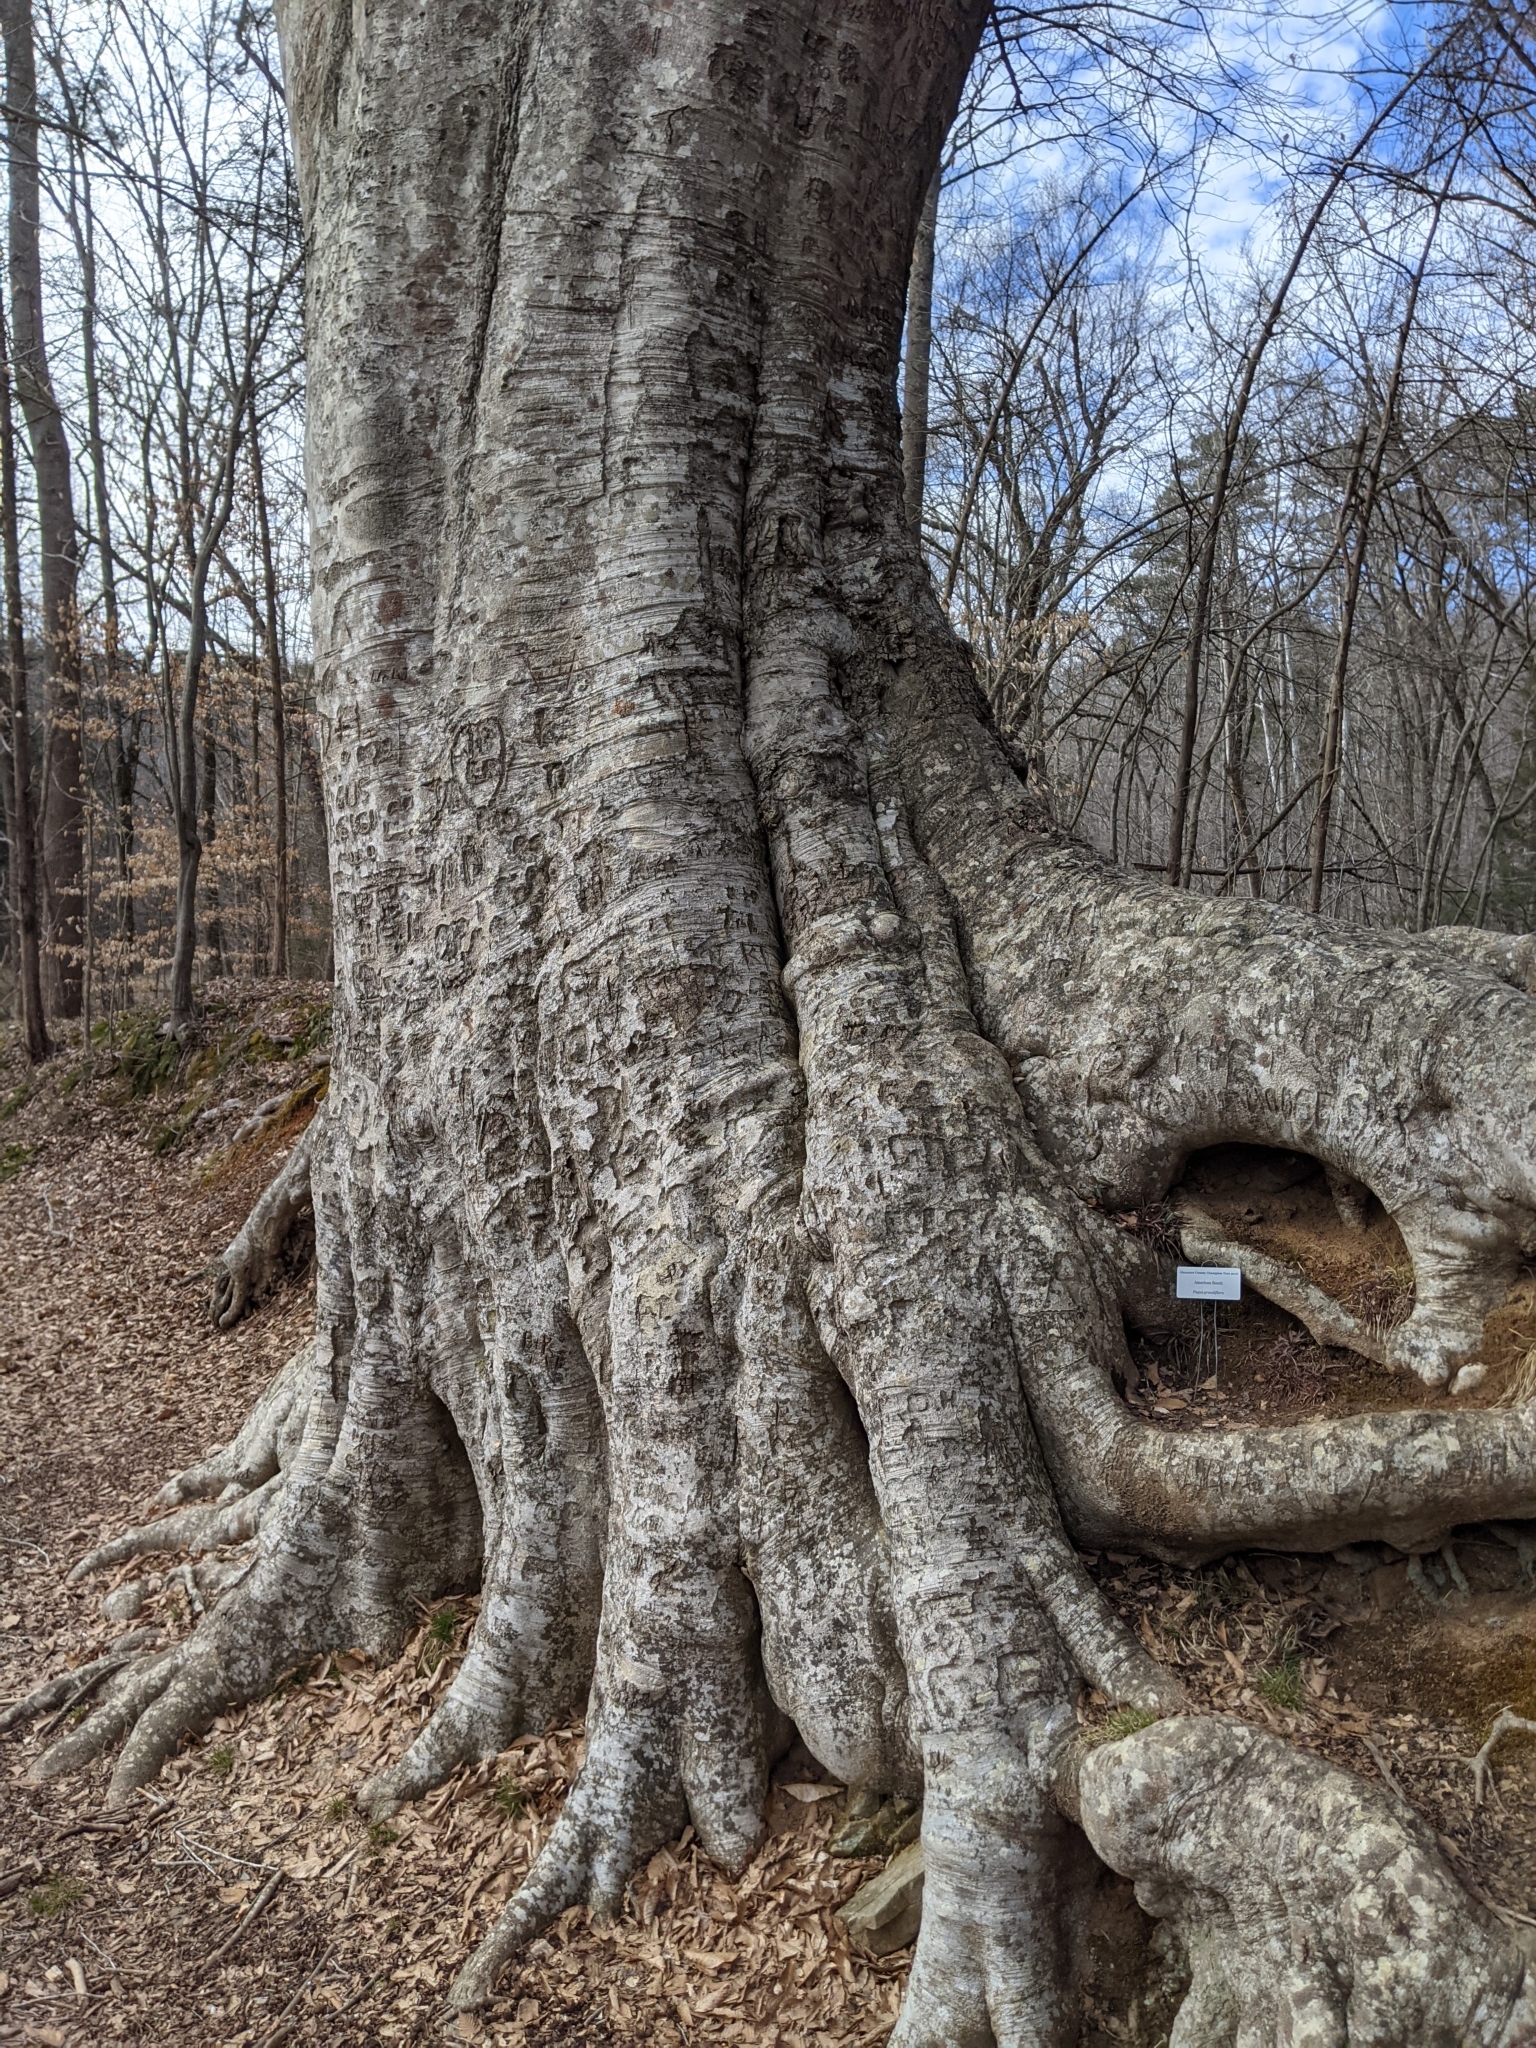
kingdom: Plantae
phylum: Tracheophyta
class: Magnoliopsida
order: Fagales
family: Fagaceae
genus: Fagus
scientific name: Fagus grandifolia
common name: American beech
